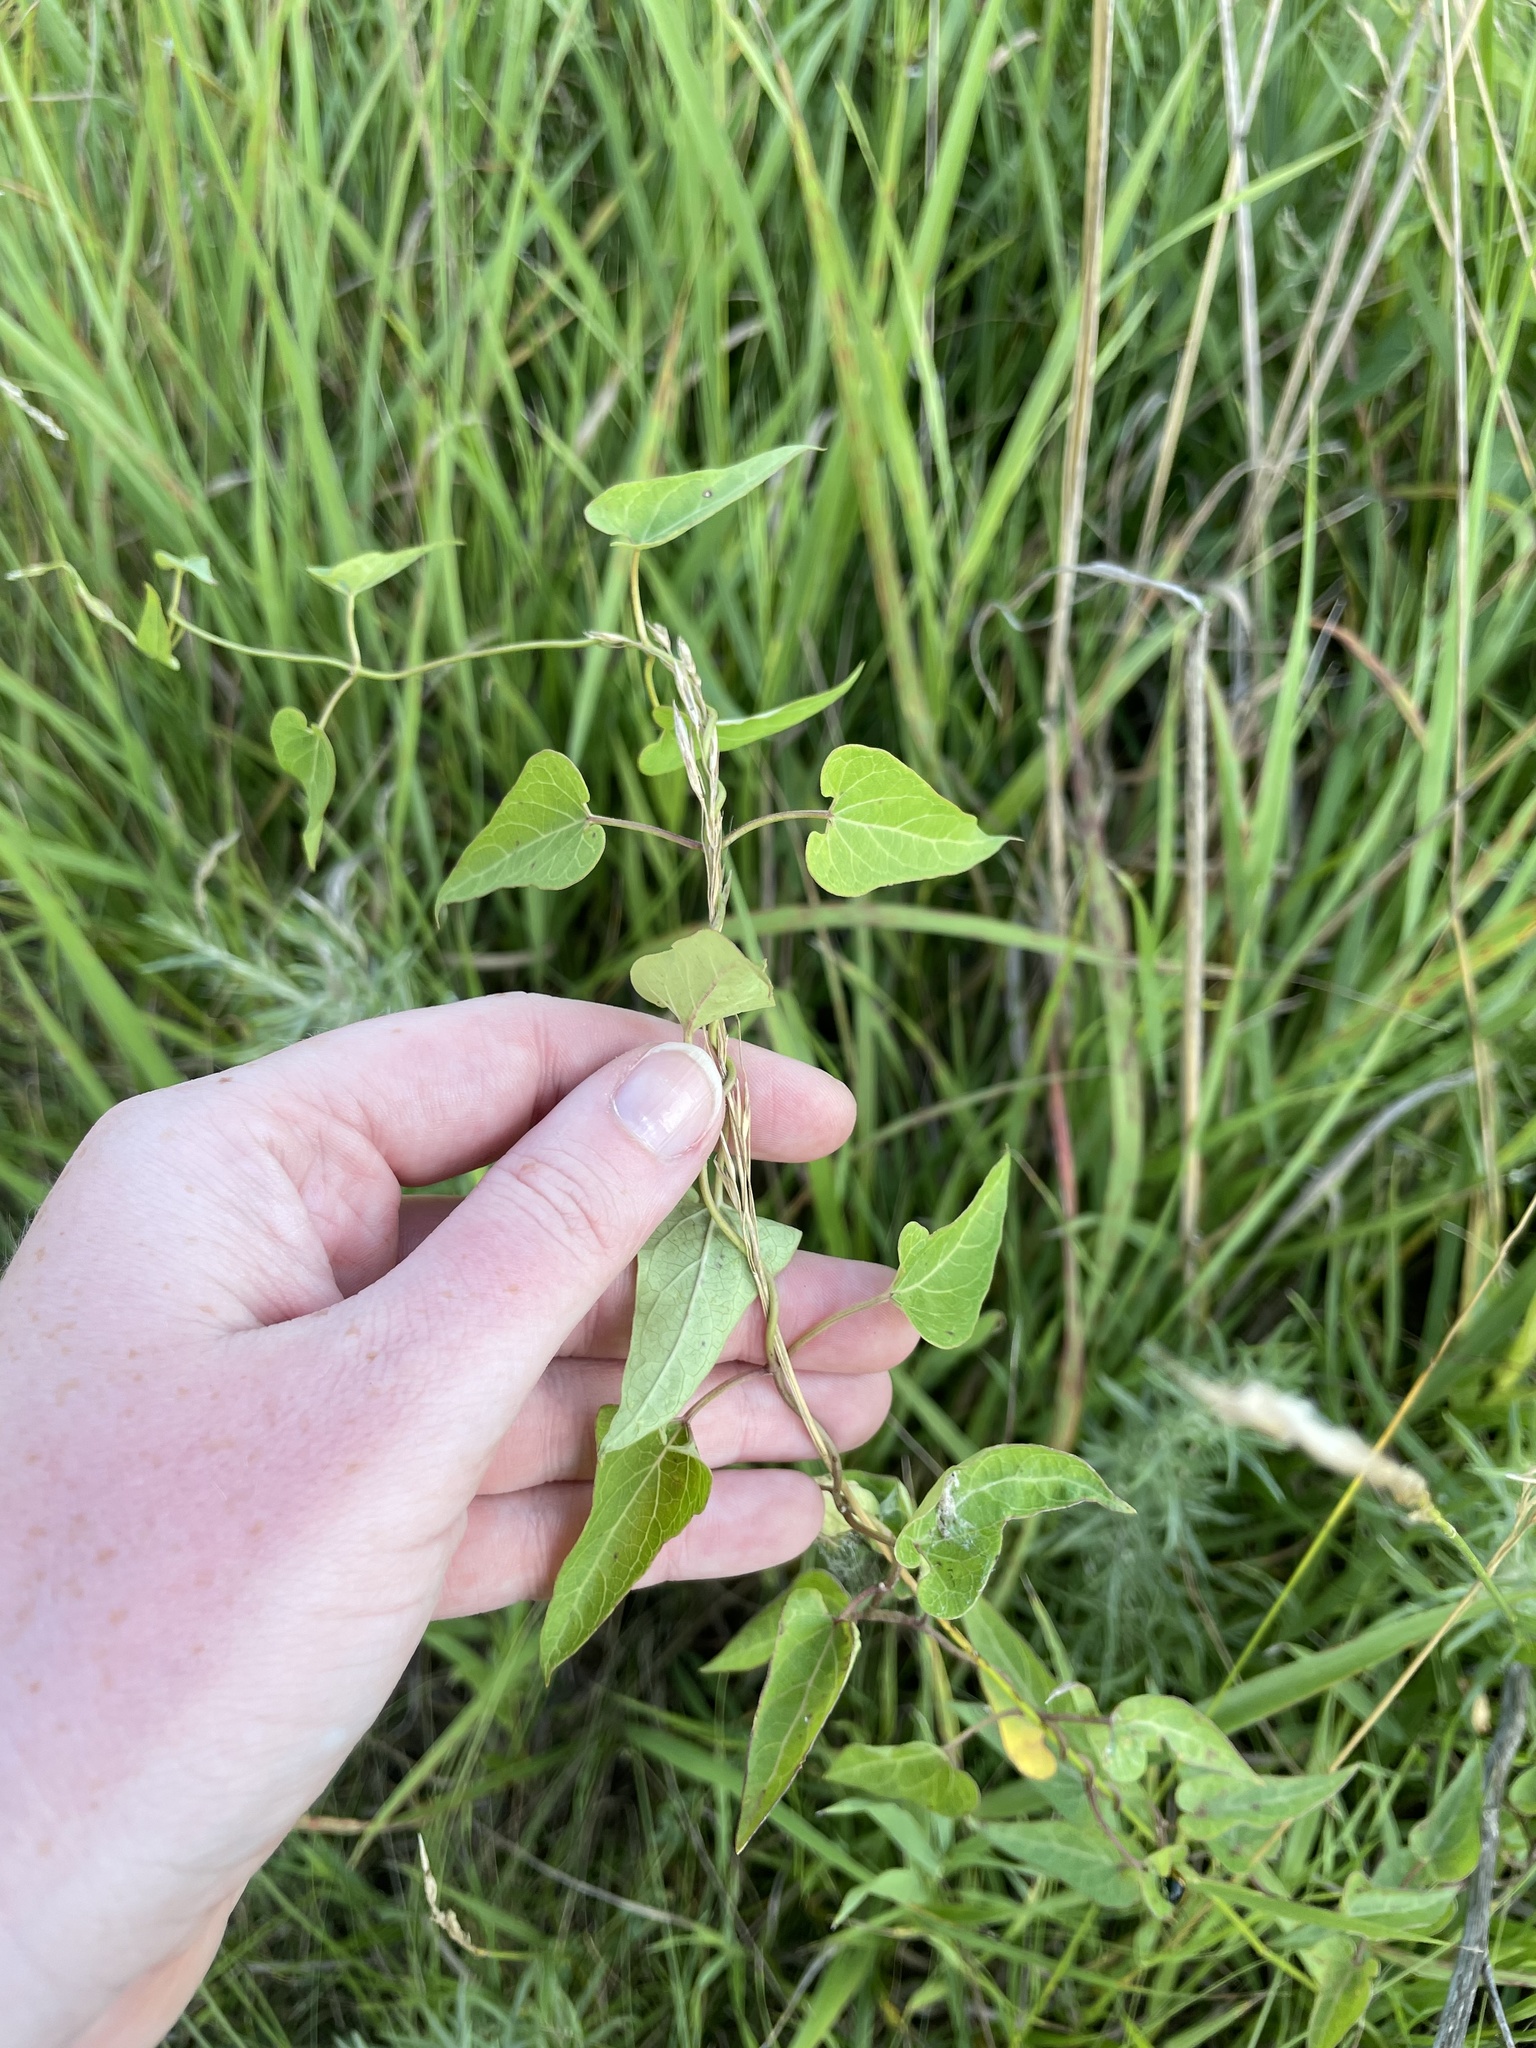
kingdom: Plantae
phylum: Tracheophyta
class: Magnoliopsida
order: Gentianales
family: Apocynaceae
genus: Cynanchum
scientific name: Cynanchum laeve
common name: Sandvine
